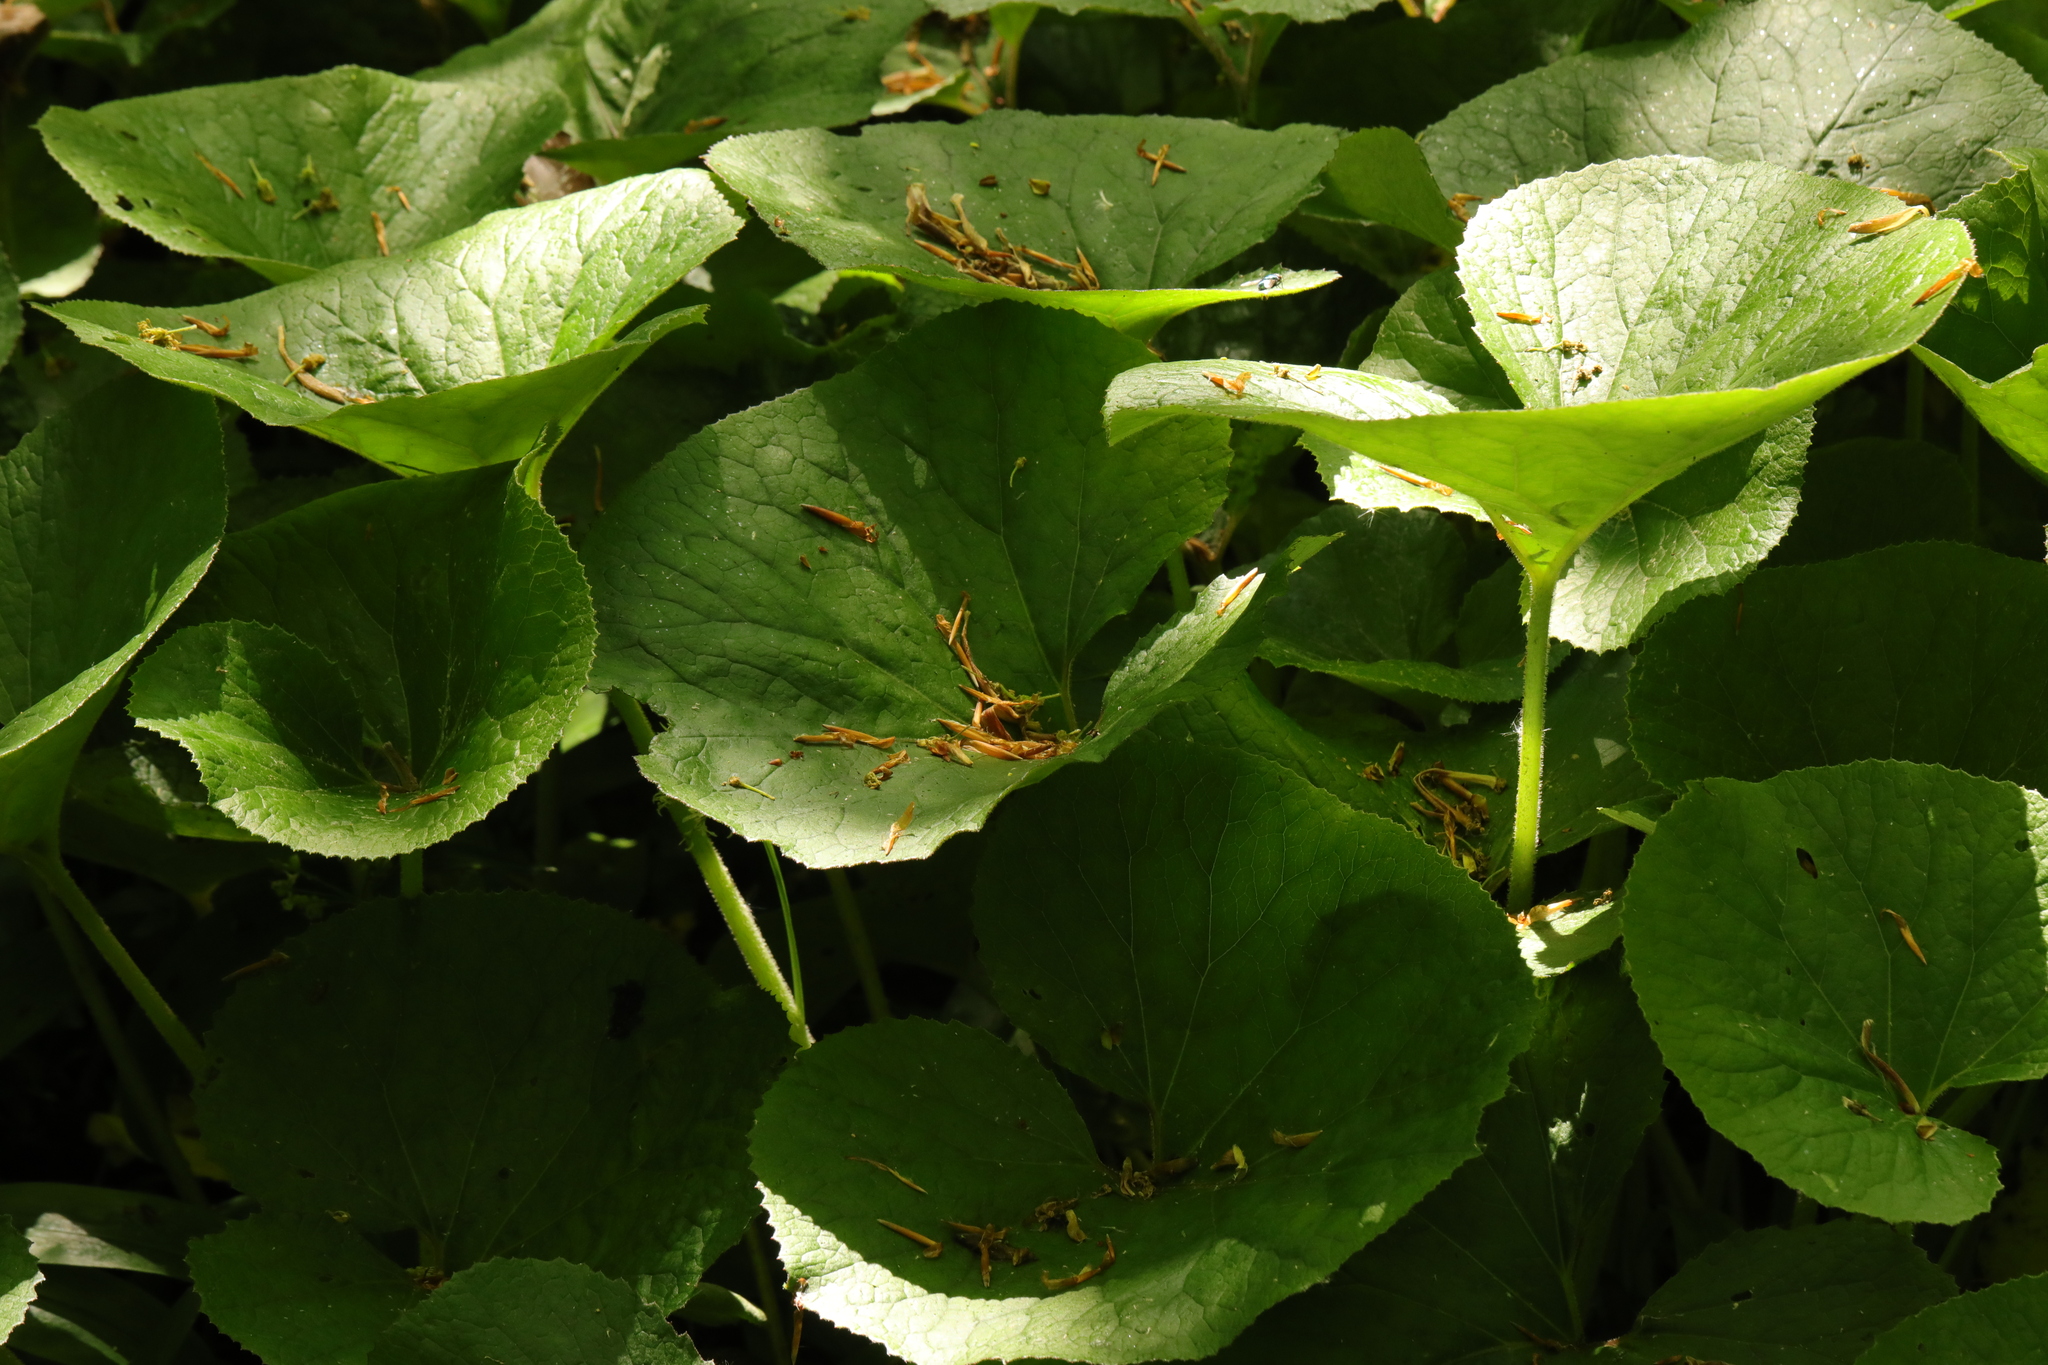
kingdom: Plantae
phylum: Tracheophyta
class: Magnoliopsida
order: Asterales
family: Asteraceae
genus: Petasites
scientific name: Petasites pyrenaicus
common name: Winter heliotrope
